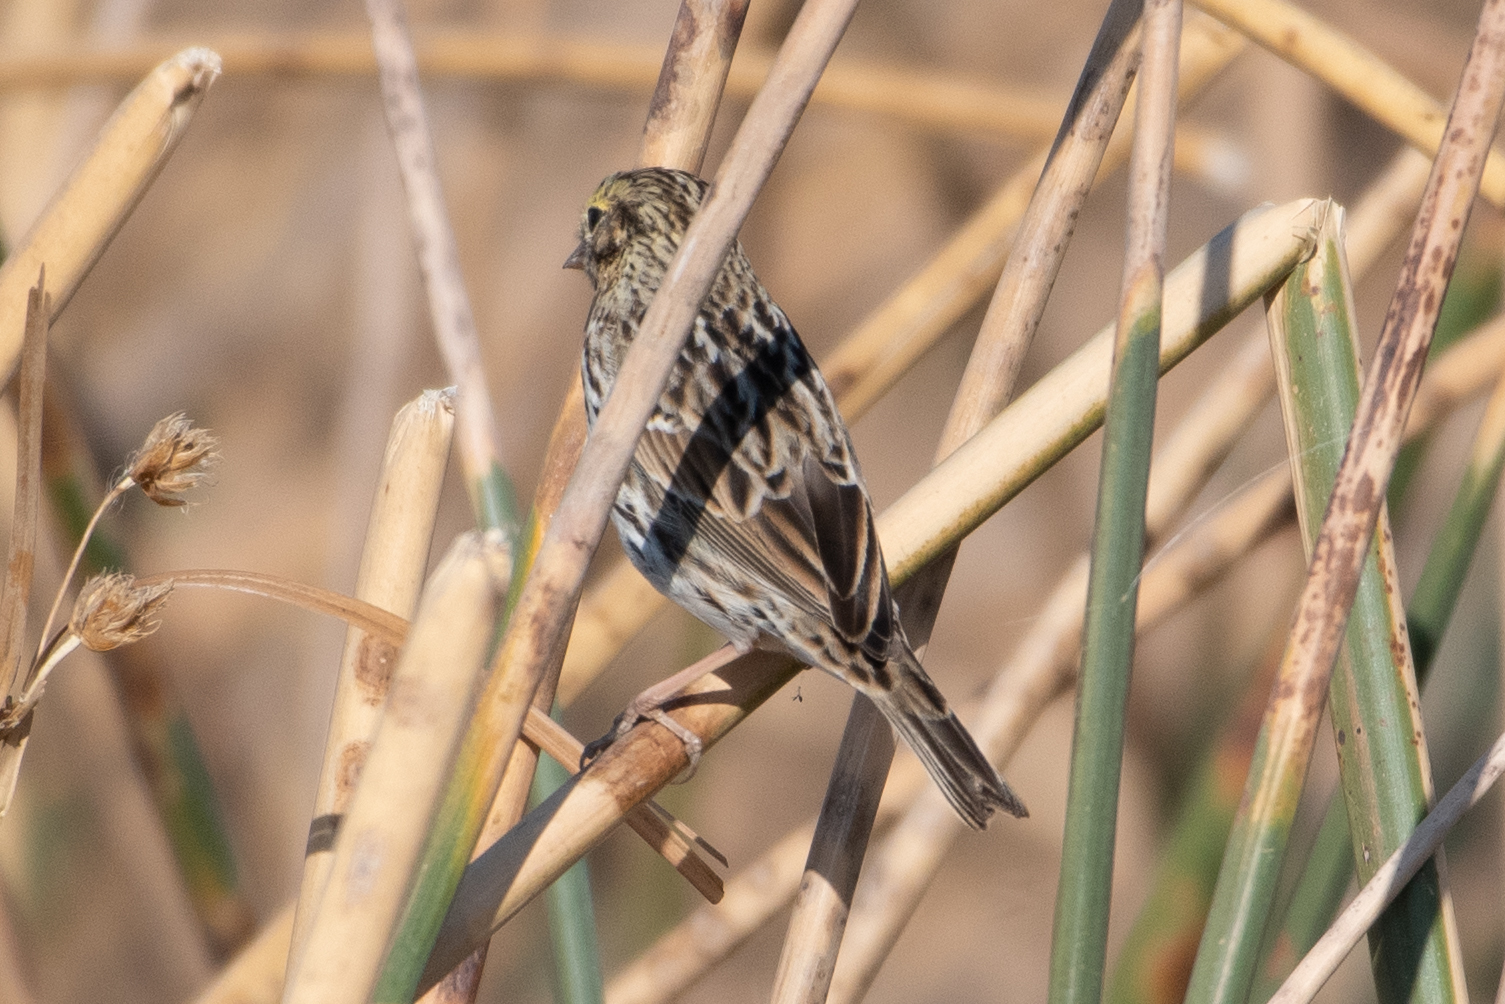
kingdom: Animalia
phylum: Chordata
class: Aves
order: Passeriformes
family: Passerellidae
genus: Passerculus
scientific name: Passerculus sandwichensis
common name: Savannah sparrow
